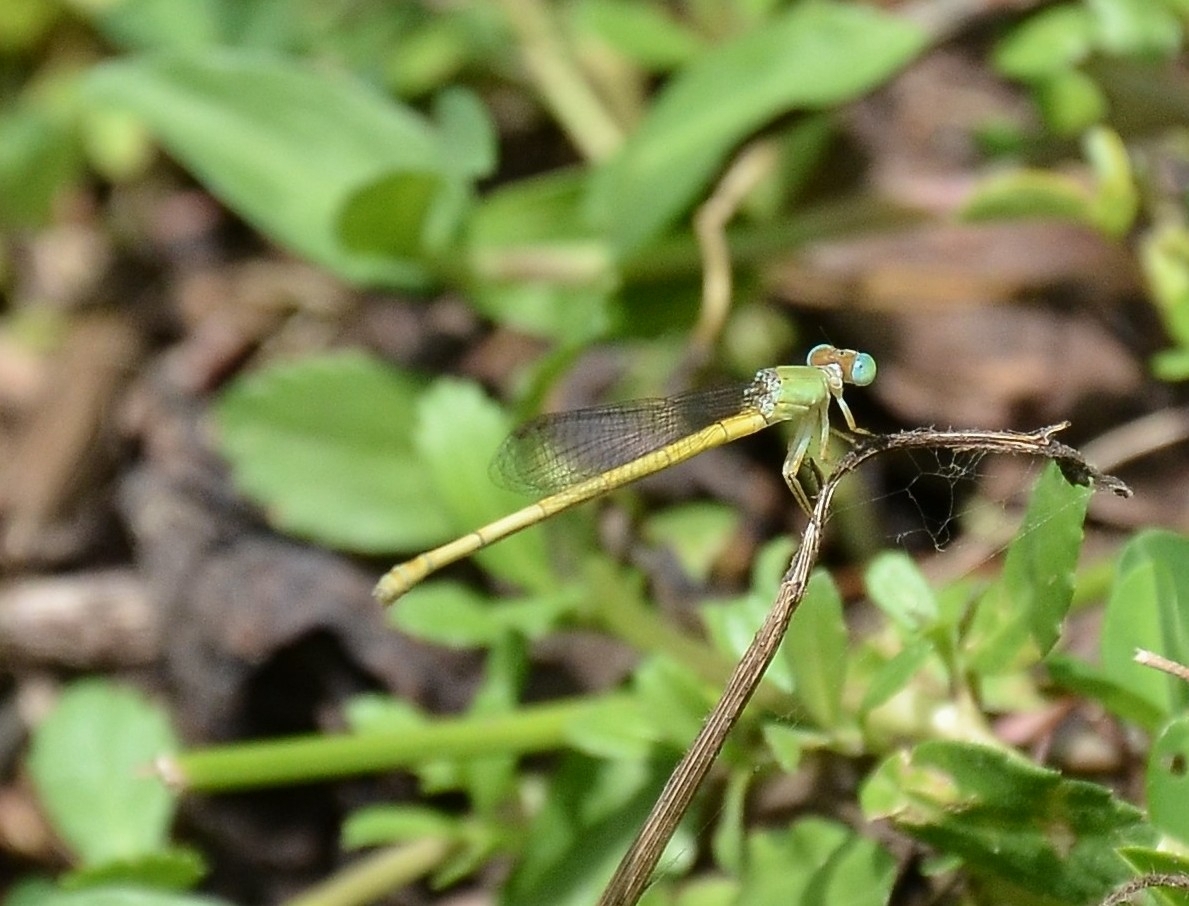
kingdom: Animalia
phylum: Arthropoda
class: Insecta
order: Odonata
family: Coenagrionidae
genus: Ceriagrion
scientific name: Ceriagrion coromandelianum
